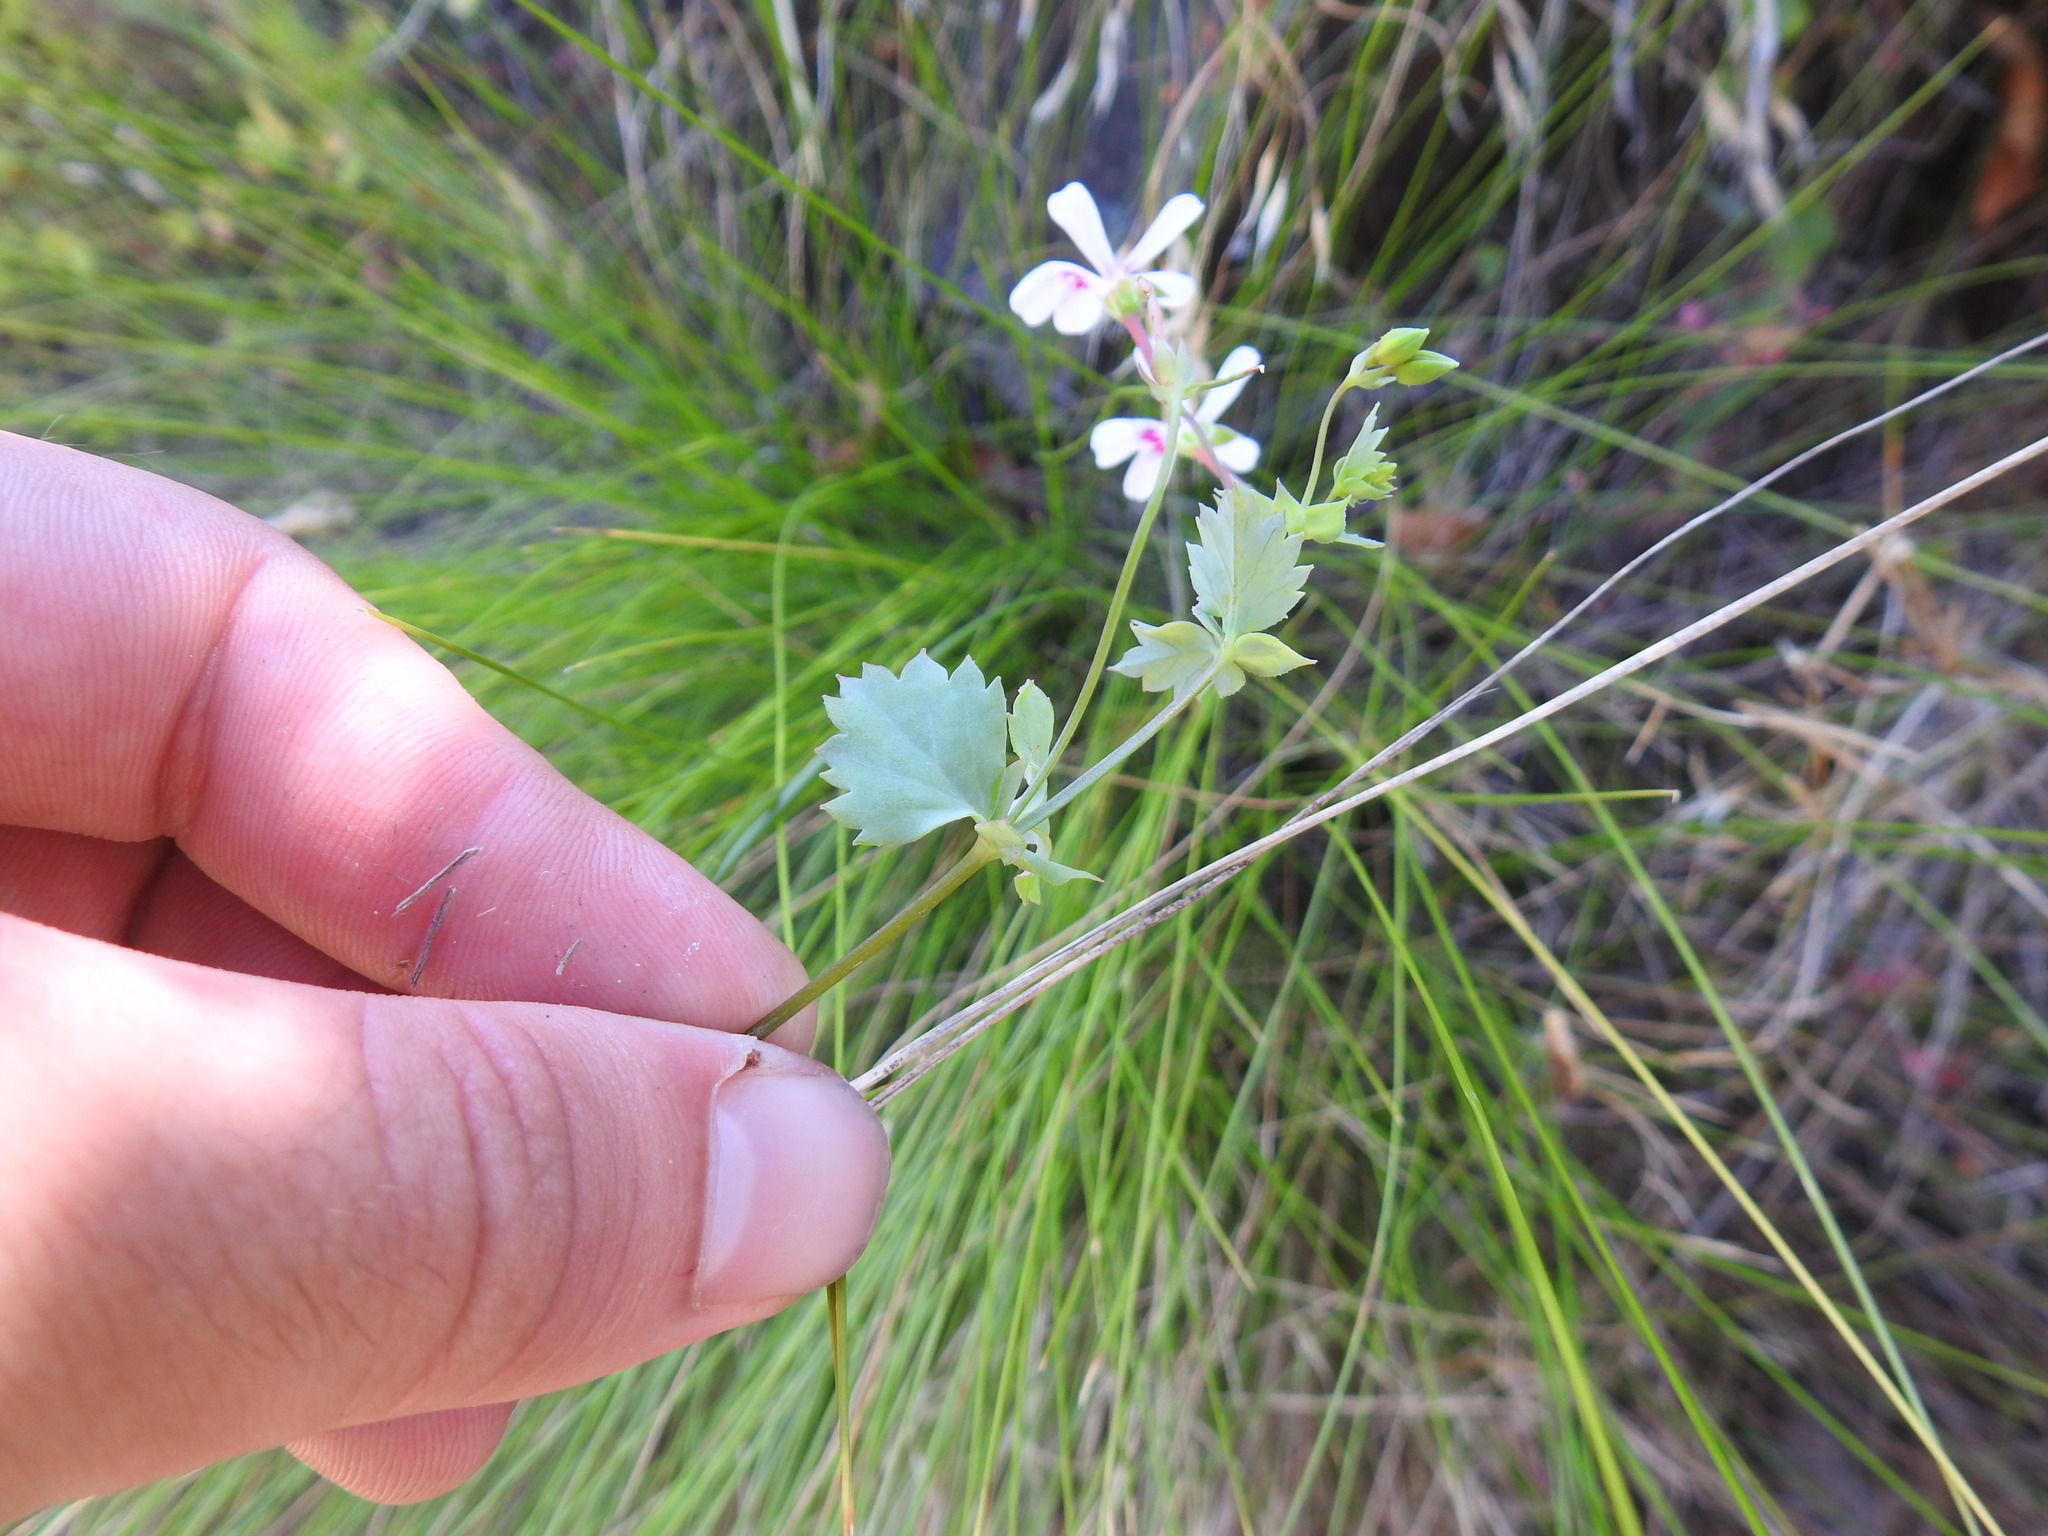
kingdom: Plantae
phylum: Tracheophyta
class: Magnoliopsida
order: Geraniales
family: Geraniaceae
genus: Pelargonium
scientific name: Pelargonium patulum
